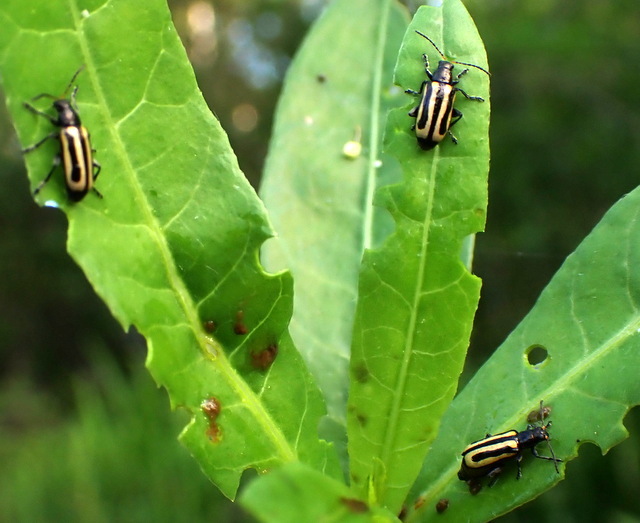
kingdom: Animalia
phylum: Arthropoda
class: Insecta
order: Coleoptera
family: Chrysomelidae
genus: Agasicles
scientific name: Agasicles hygrophila
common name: Alligatorweed flea beetle
